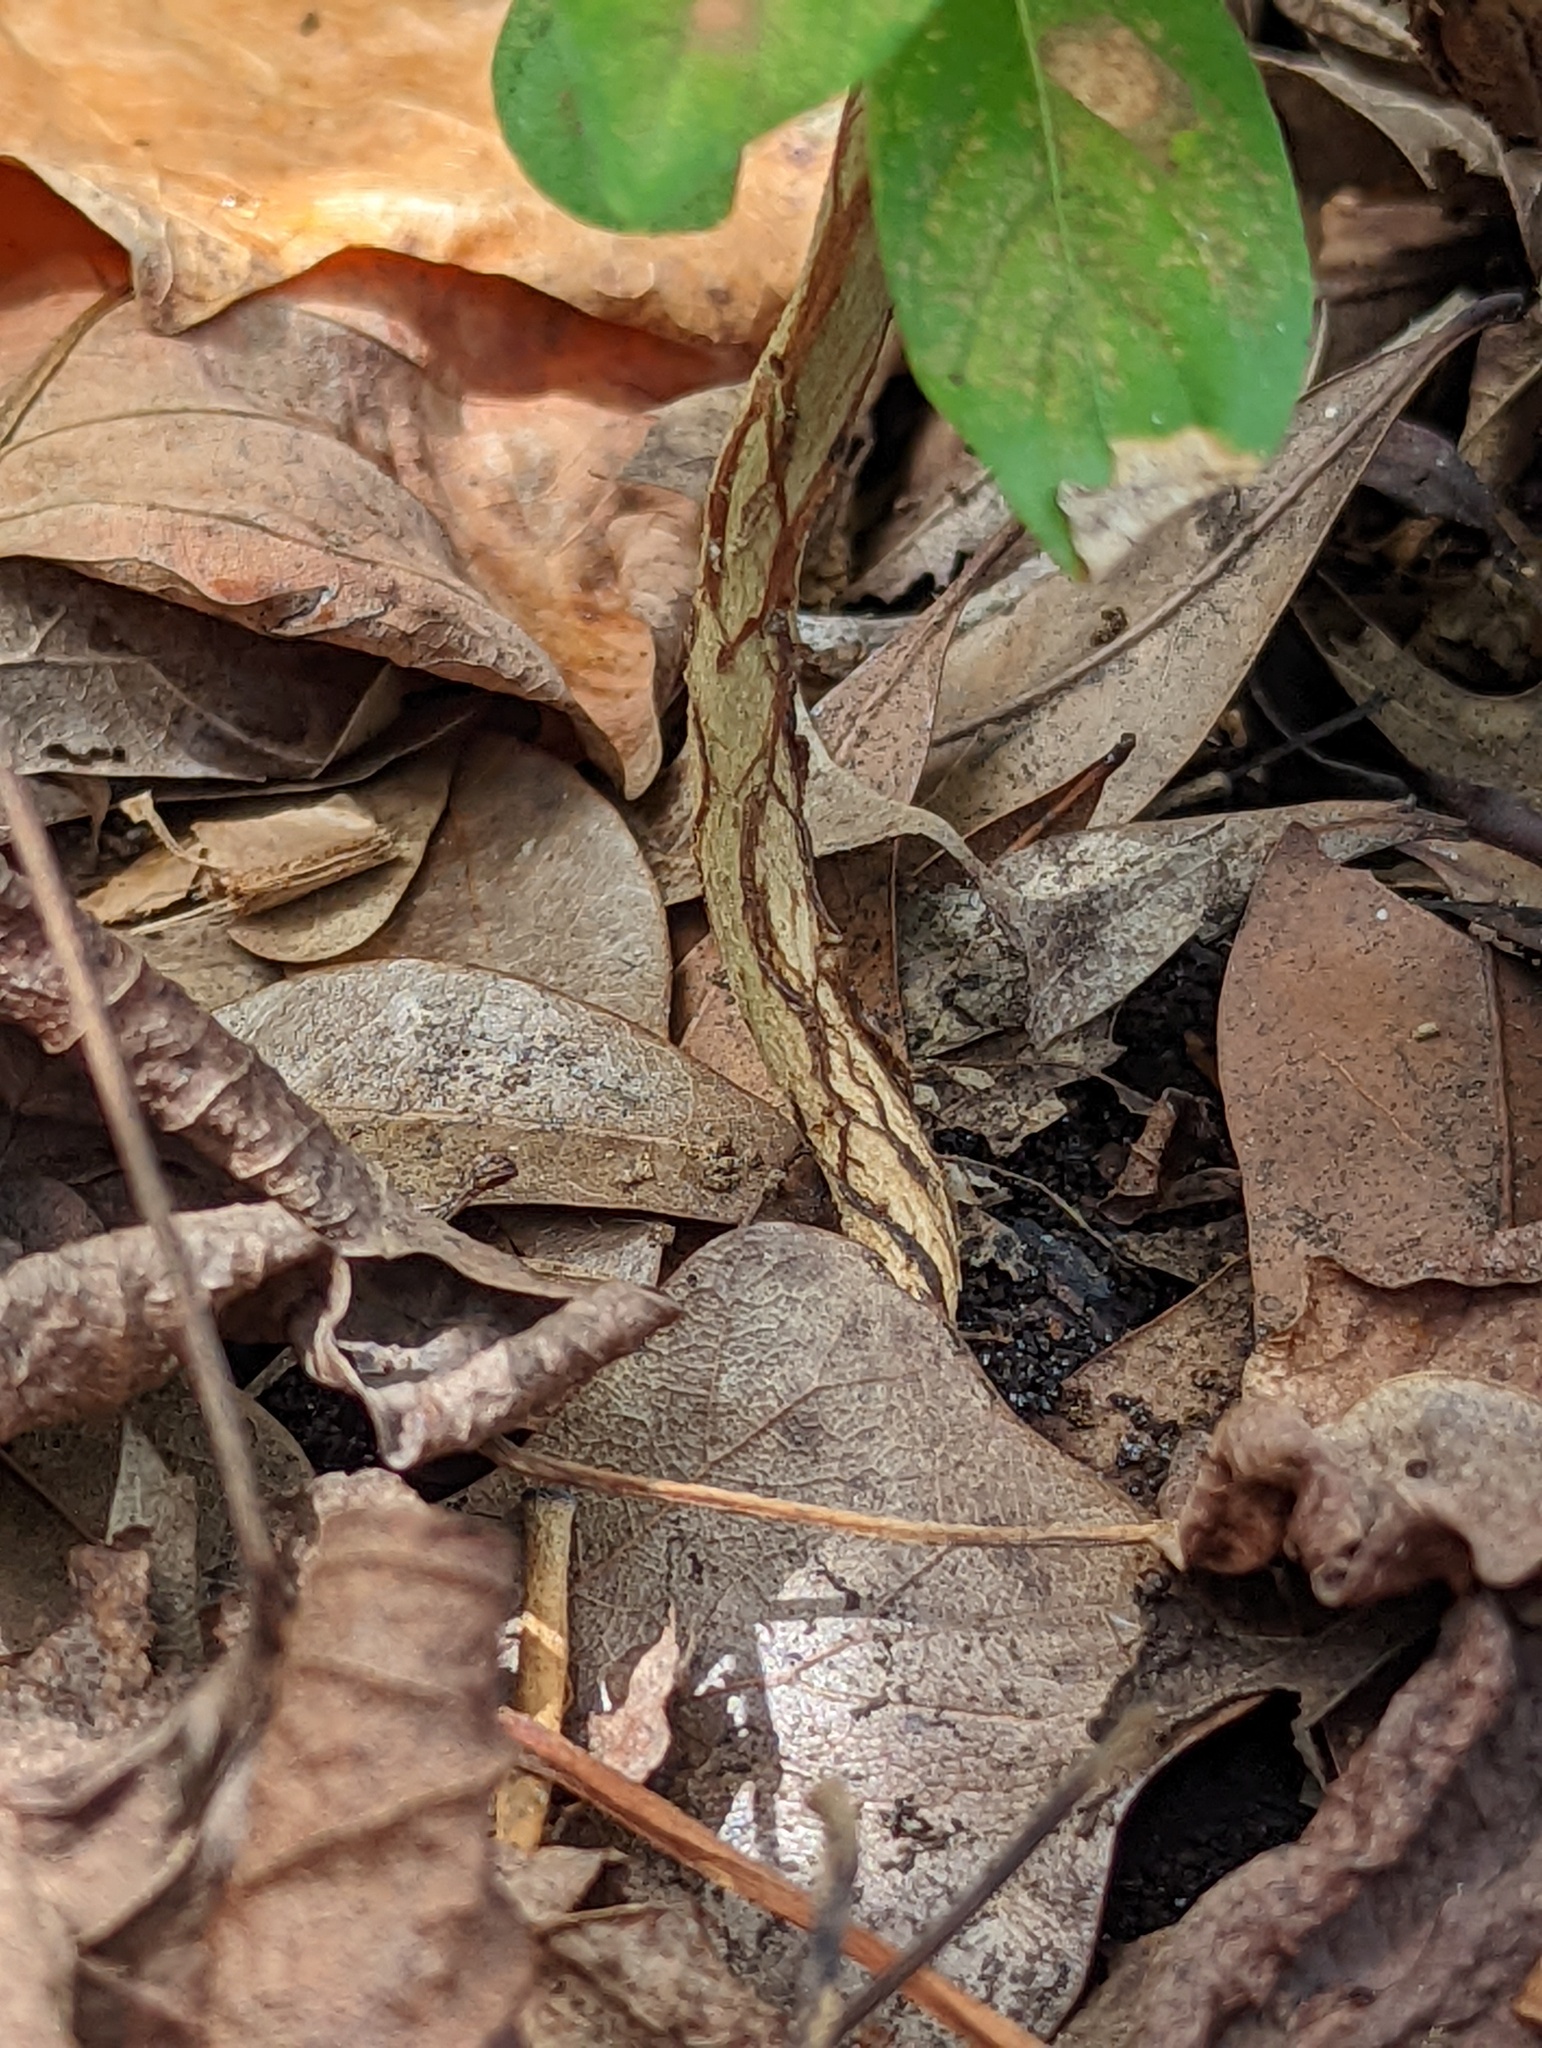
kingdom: Plantae
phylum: Tracheophyta
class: Magnoliopsida
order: Myrtales
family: Lythraceae
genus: Lagerstroemia
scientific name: Lagerstroemia indica
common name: Crape-myrtle
